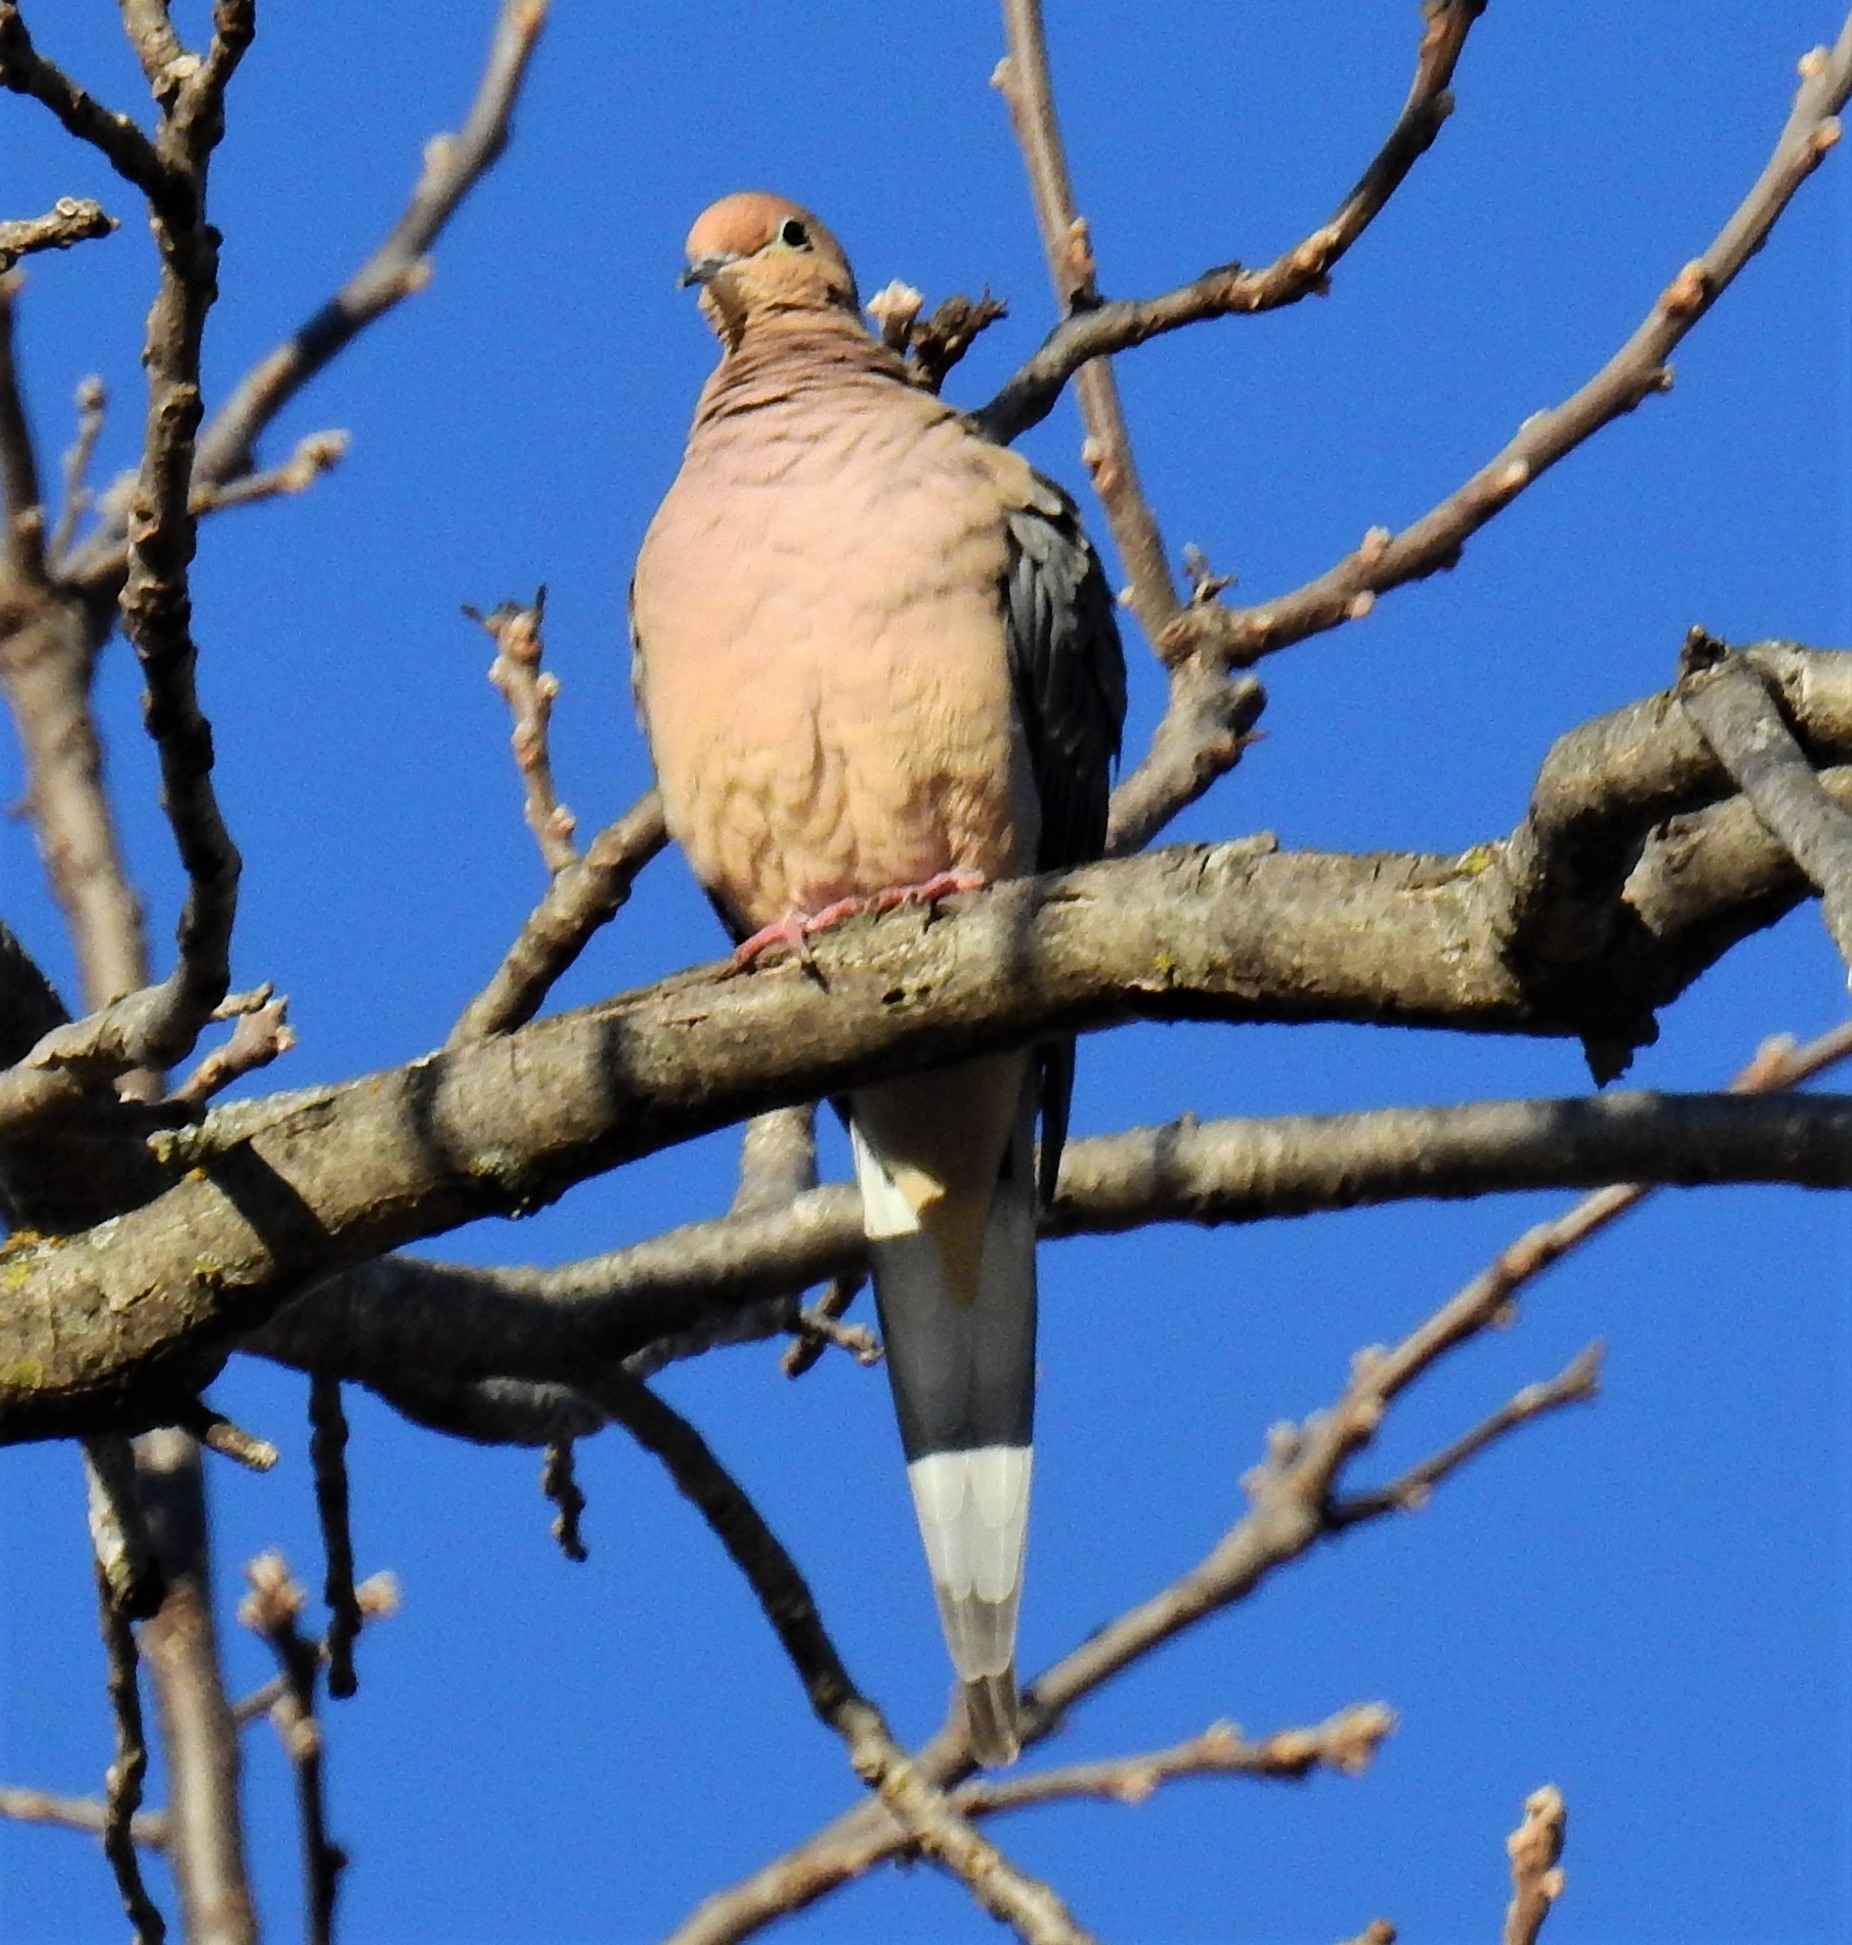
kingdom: Animalia
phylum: Chordata
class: Aves
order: Columbiformes
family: Columbidae
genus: Zenaida
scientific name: Zenaida macroura
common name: Mourning dove
